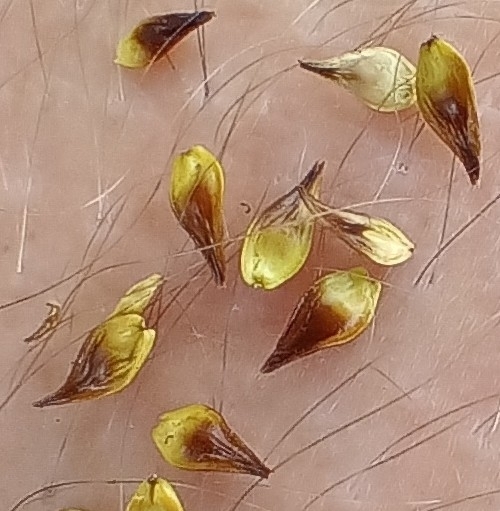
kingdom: Plantae
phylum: Tracheophyta
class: Liliopsida
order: Poales
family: Cyperaceae
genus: Carex
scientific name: Carex spicata
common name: Spiked sedge
